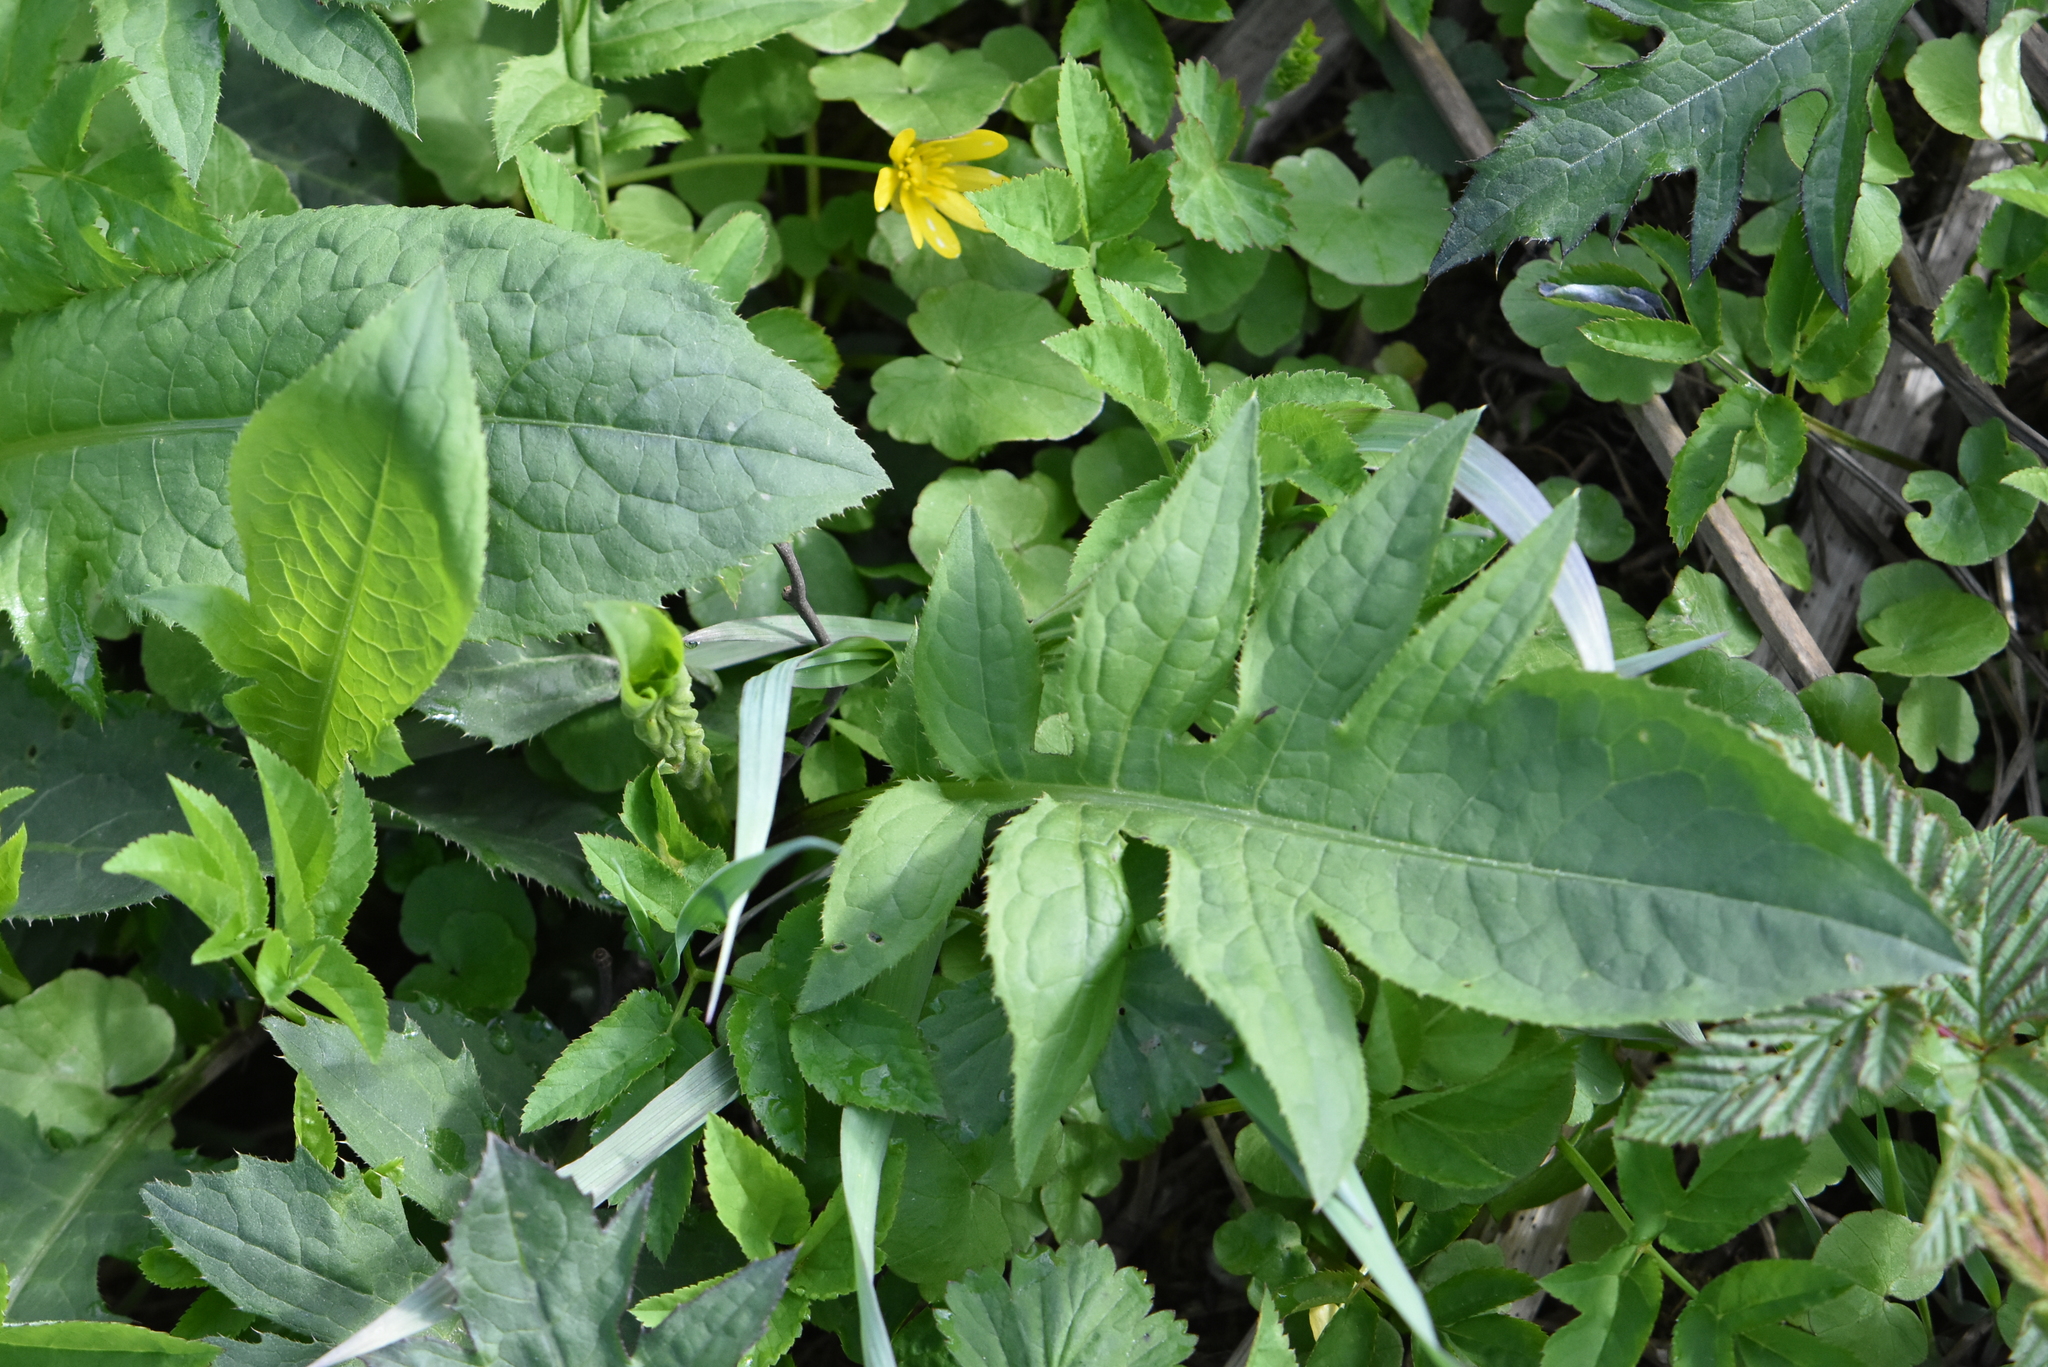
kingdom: Plantae
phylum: Tracheophyta
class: Magnoliopsida
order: Asterales
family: Asteraceae
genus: Cirsium
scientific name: Cirsium oleraceum
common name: Cabbage thistle
